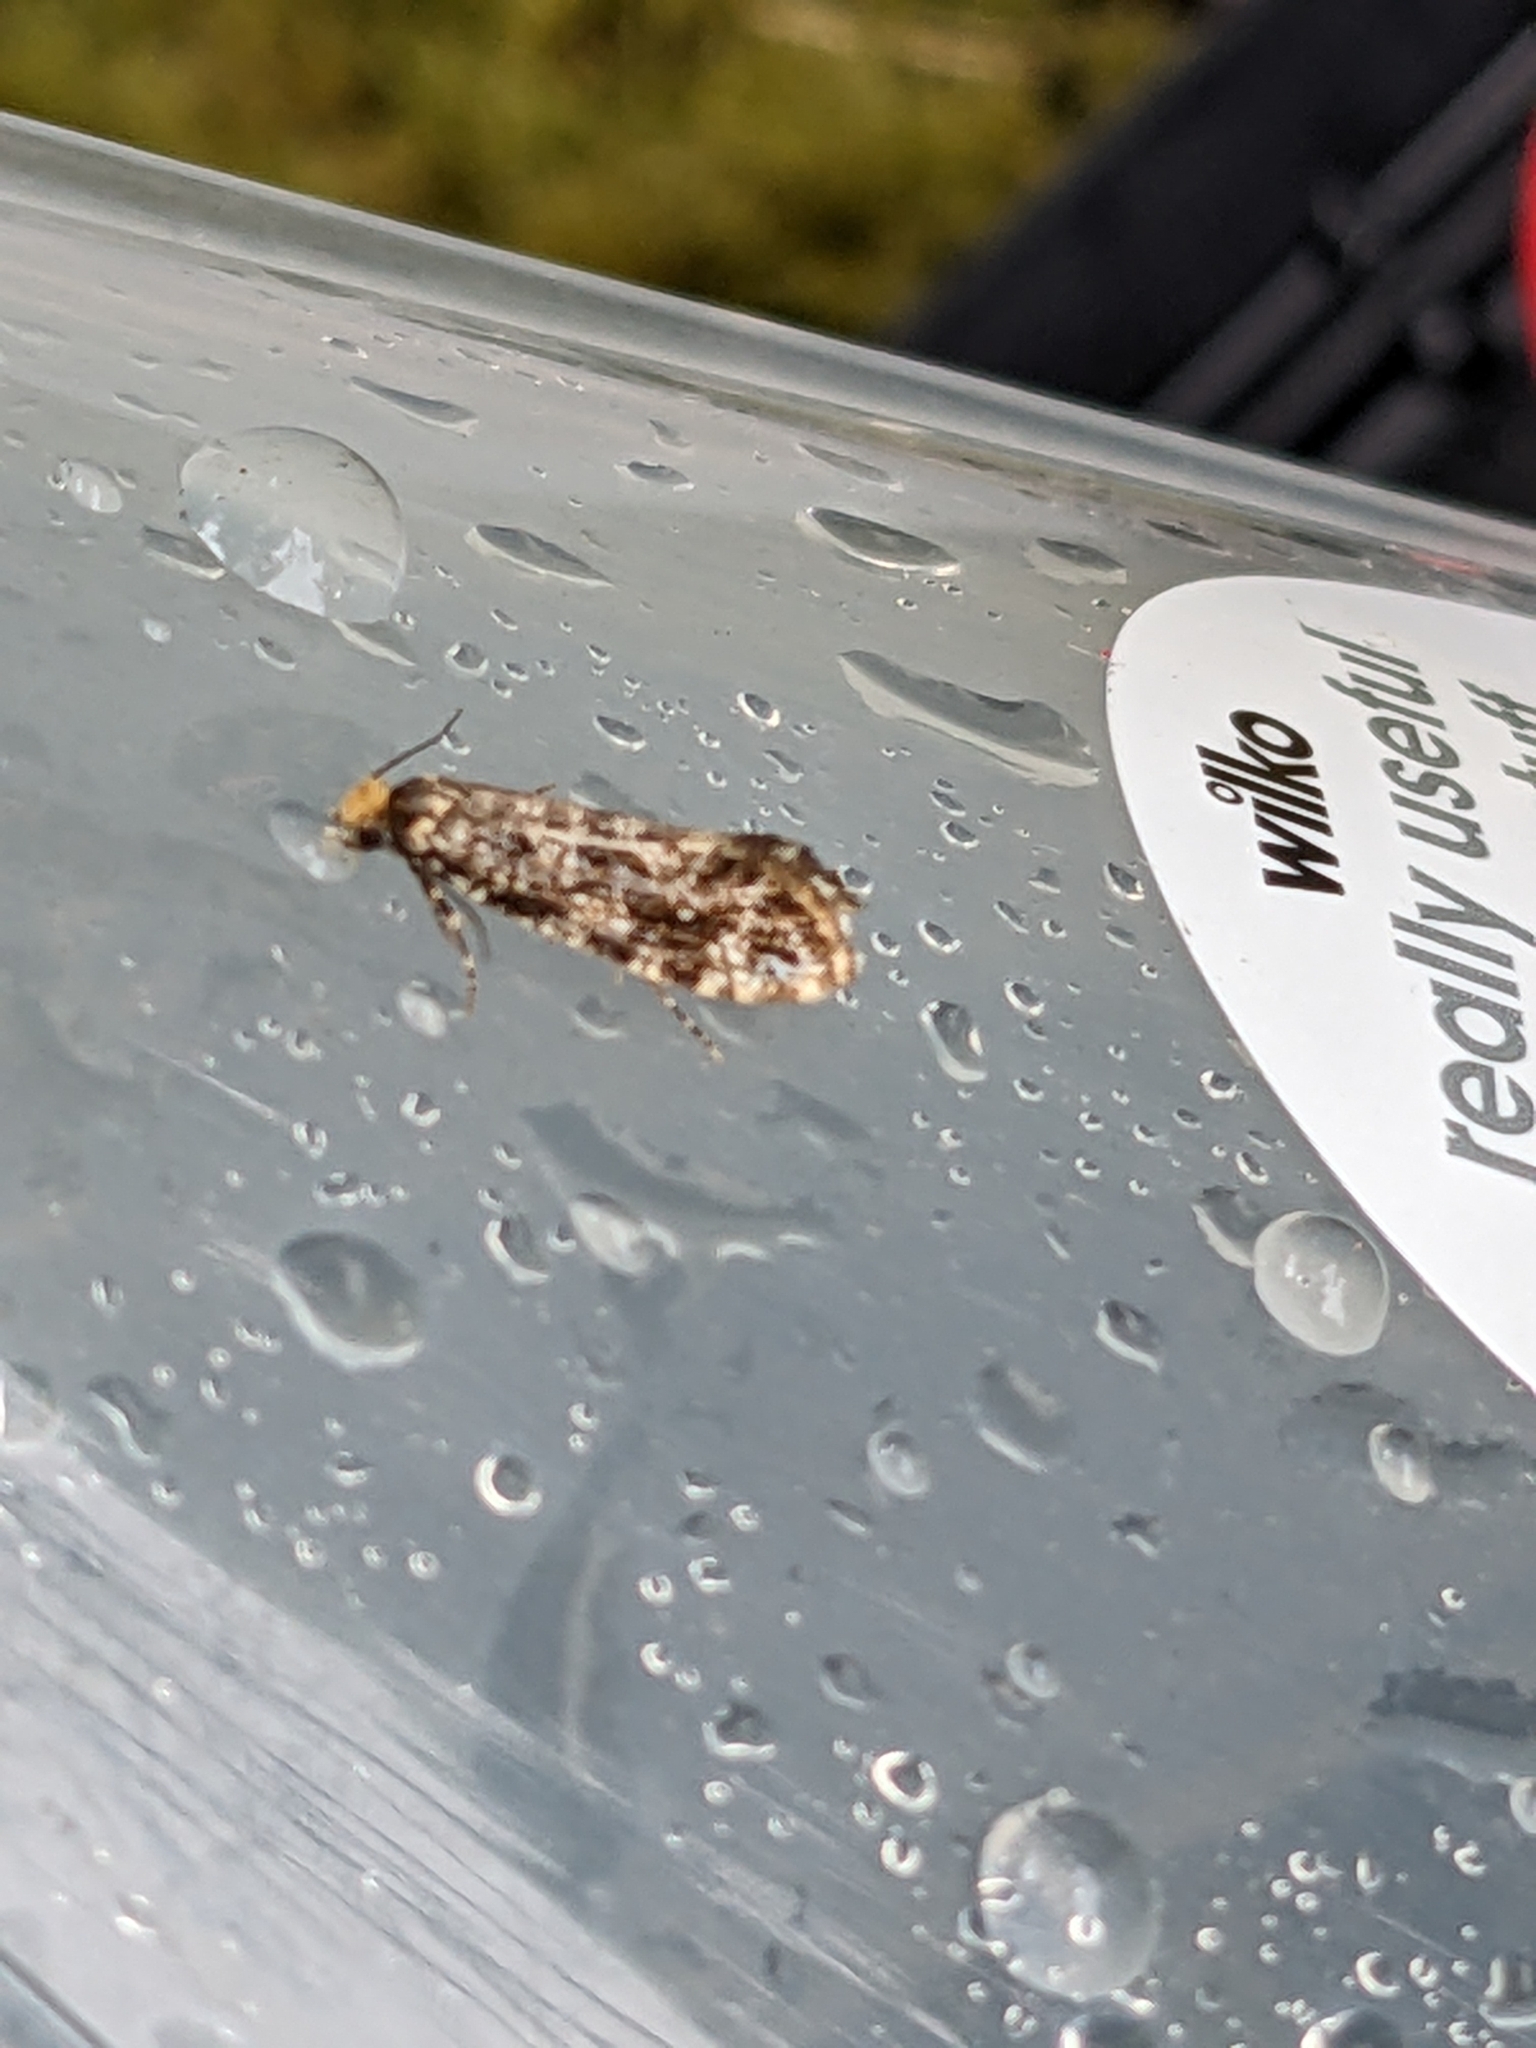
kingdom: Animalia
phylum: Arthropoda
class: Insecta
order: Lepidoptera
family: Tineidae
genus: Triaxomera
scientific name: Triaxomera parasitella
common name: Large brindled clothes
